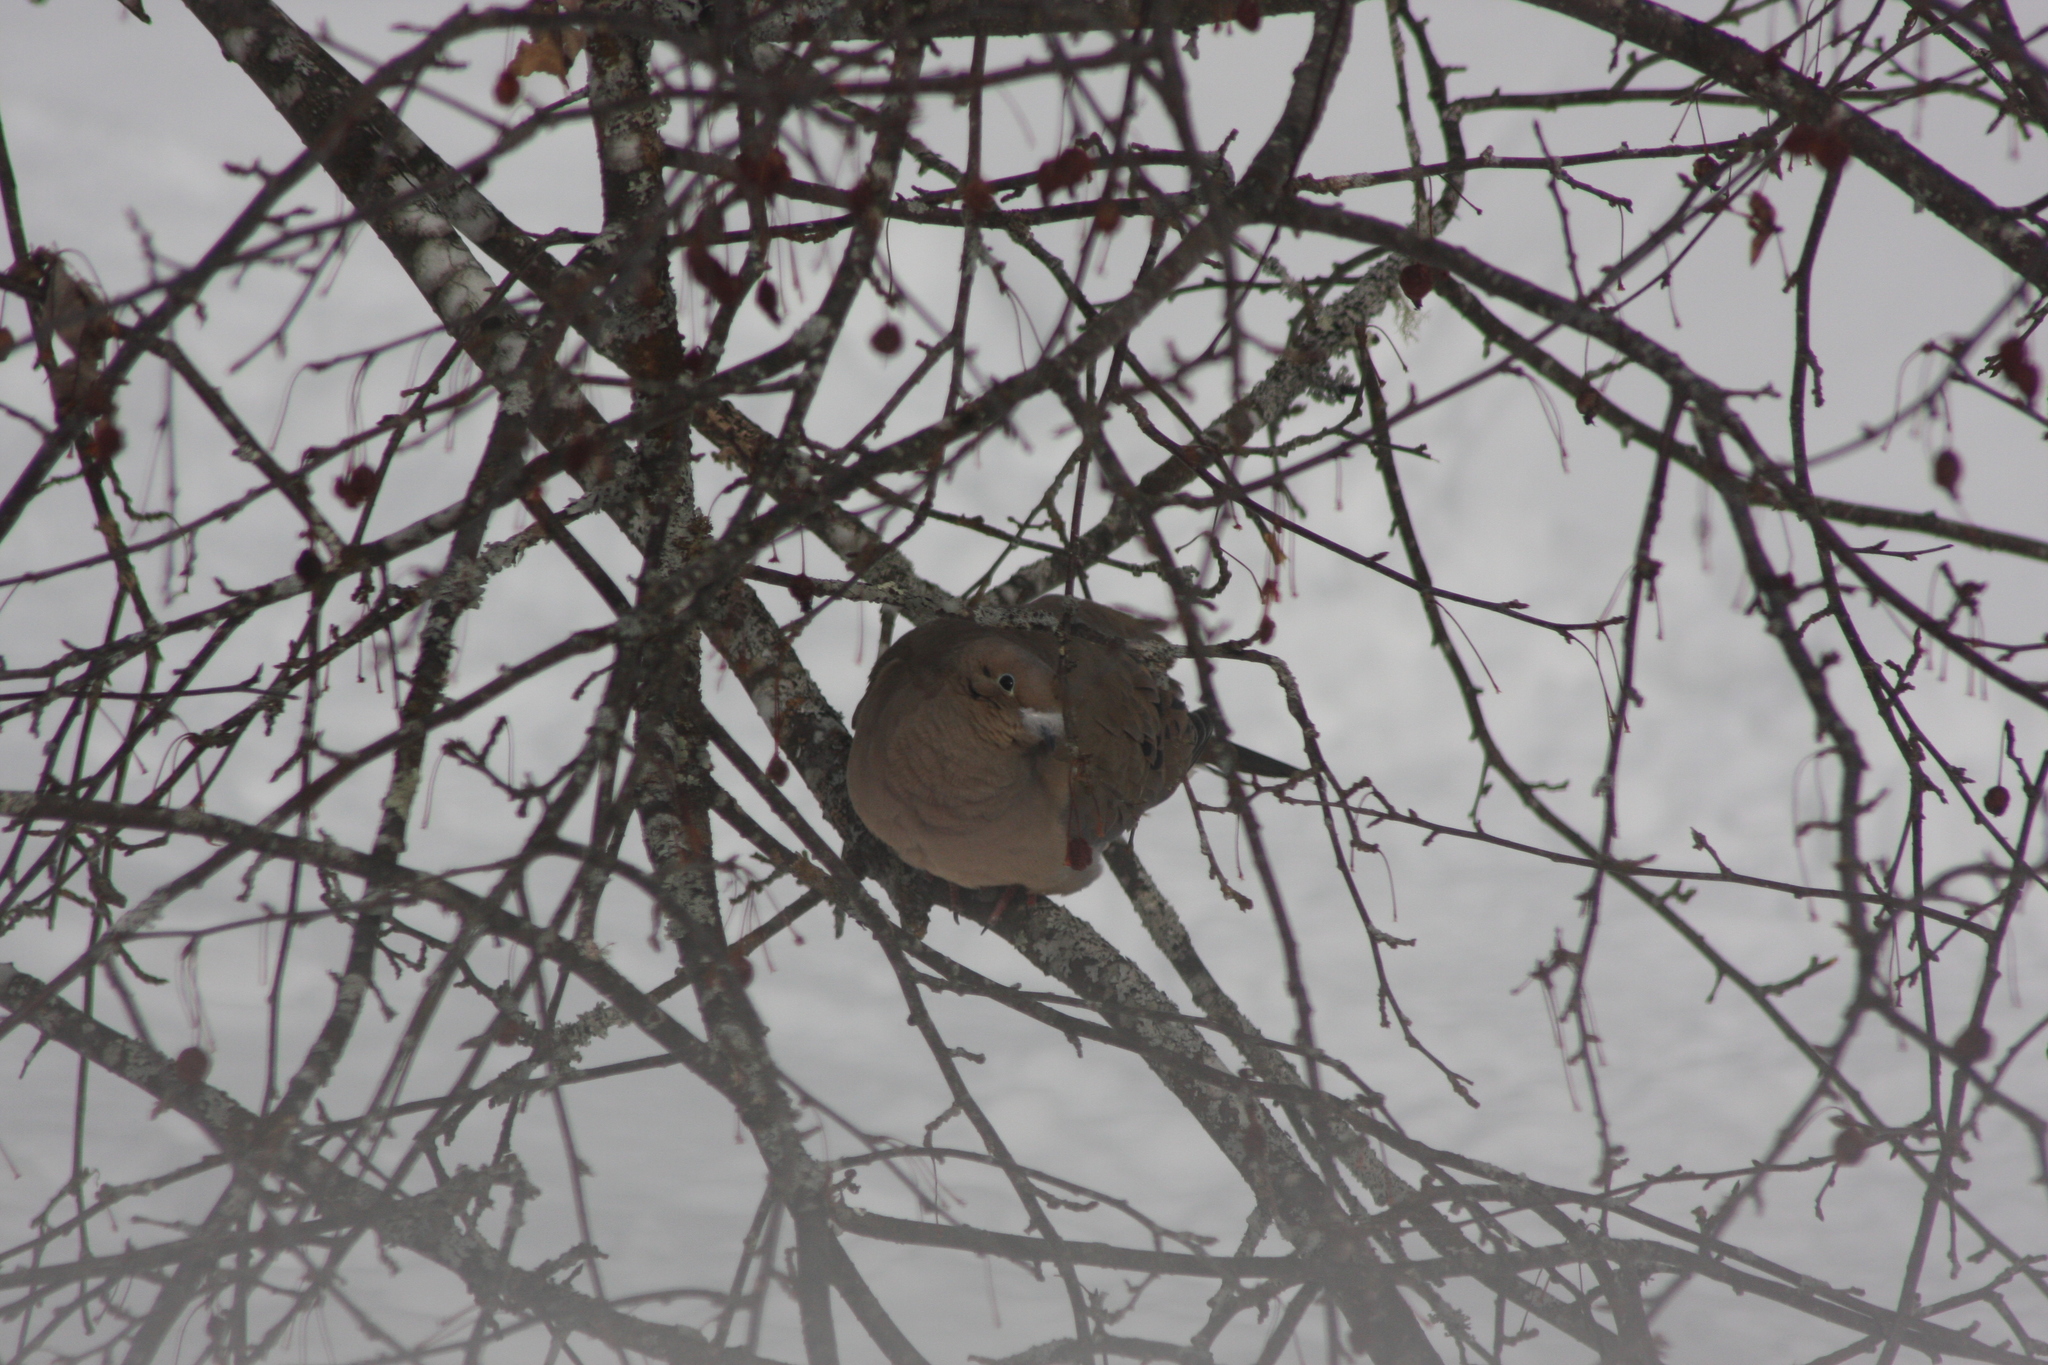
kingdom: Animalia
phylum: Chordata
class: Aves
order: Columbiformes
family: Columbidae
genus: Zenaida
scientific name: Zenaida macroura
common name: Mourning dove
